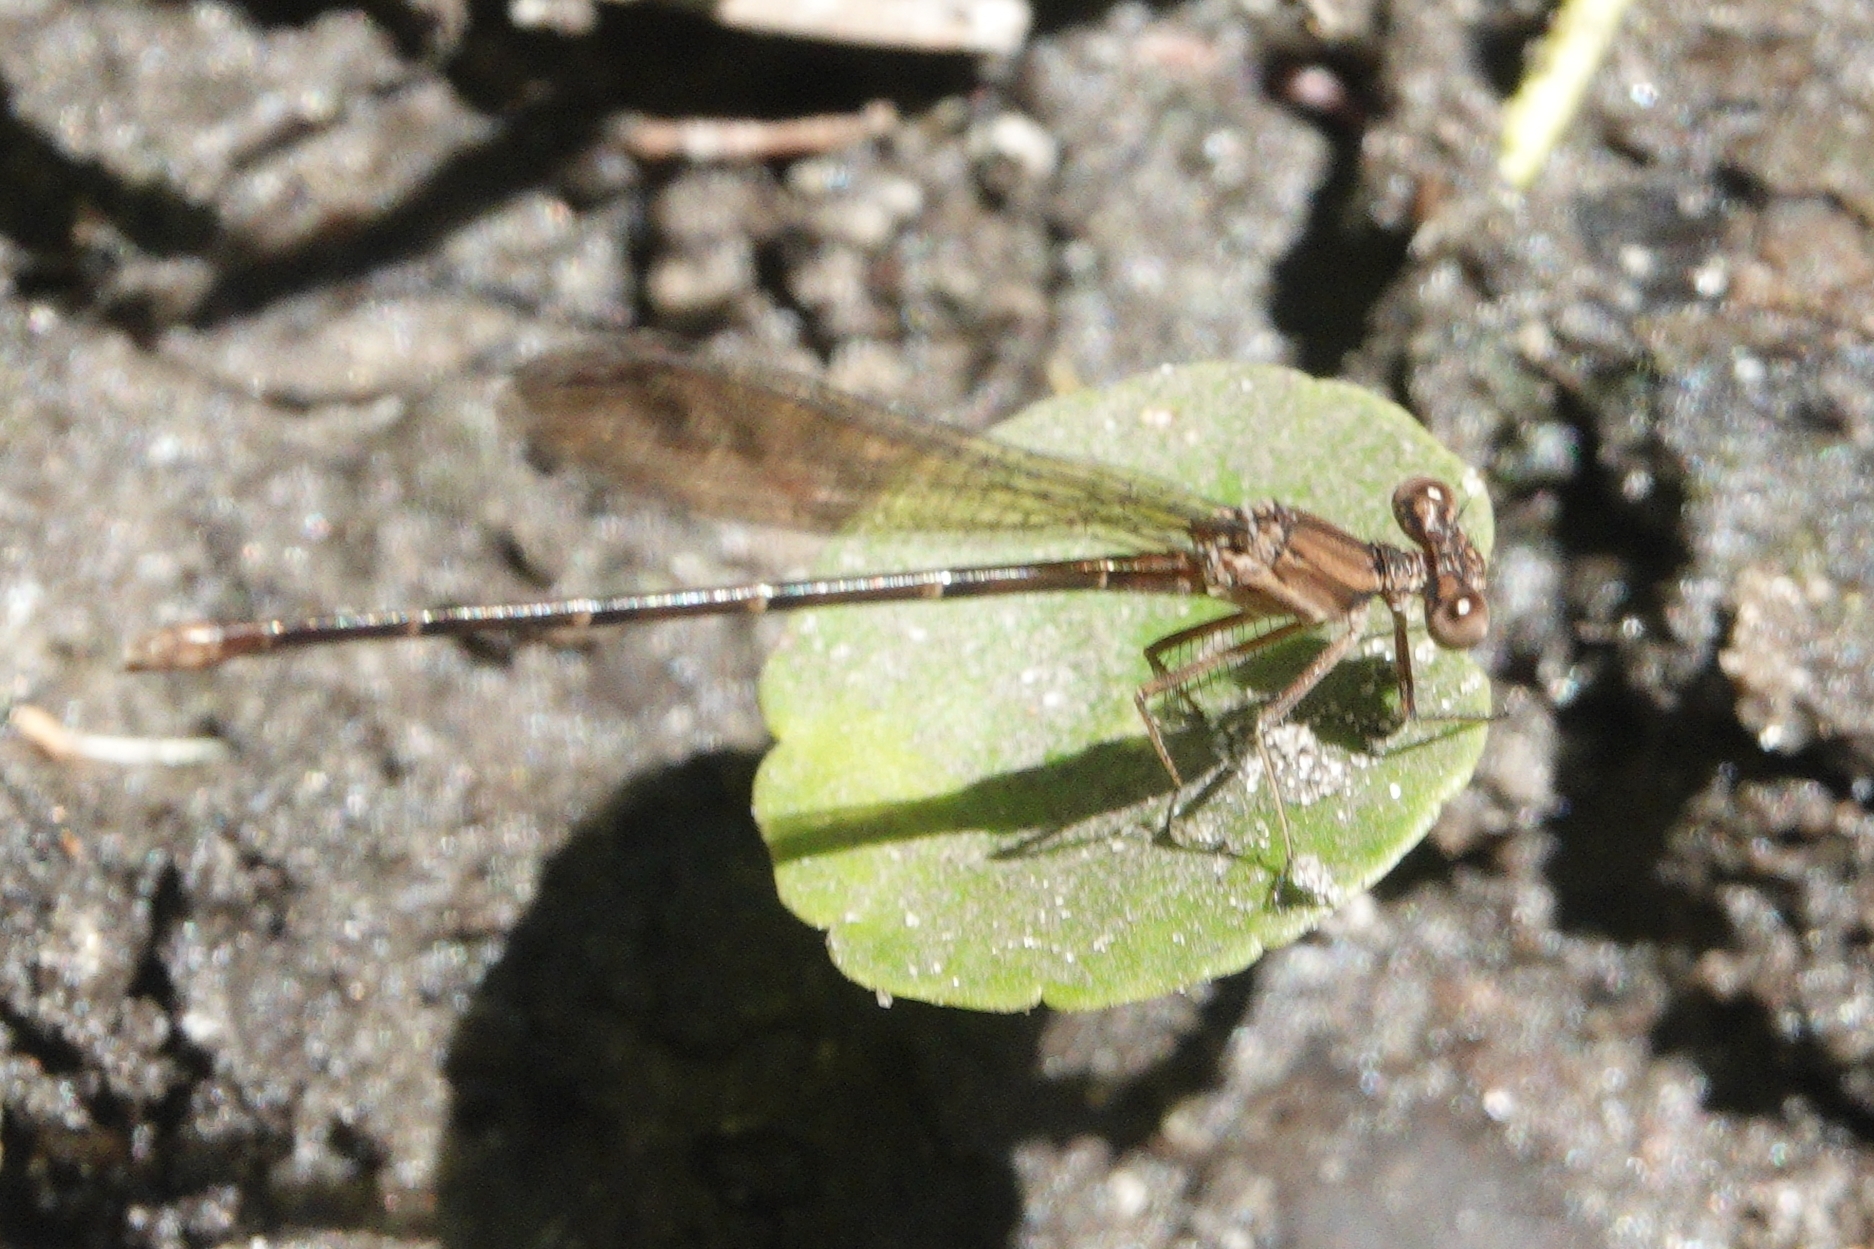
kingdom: Animalia
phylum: Arthropoda
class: Insecta
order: Odonata
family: Coenagrionidae
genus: Argia
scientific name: Argia sedula
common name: Blue-ringed dancer
